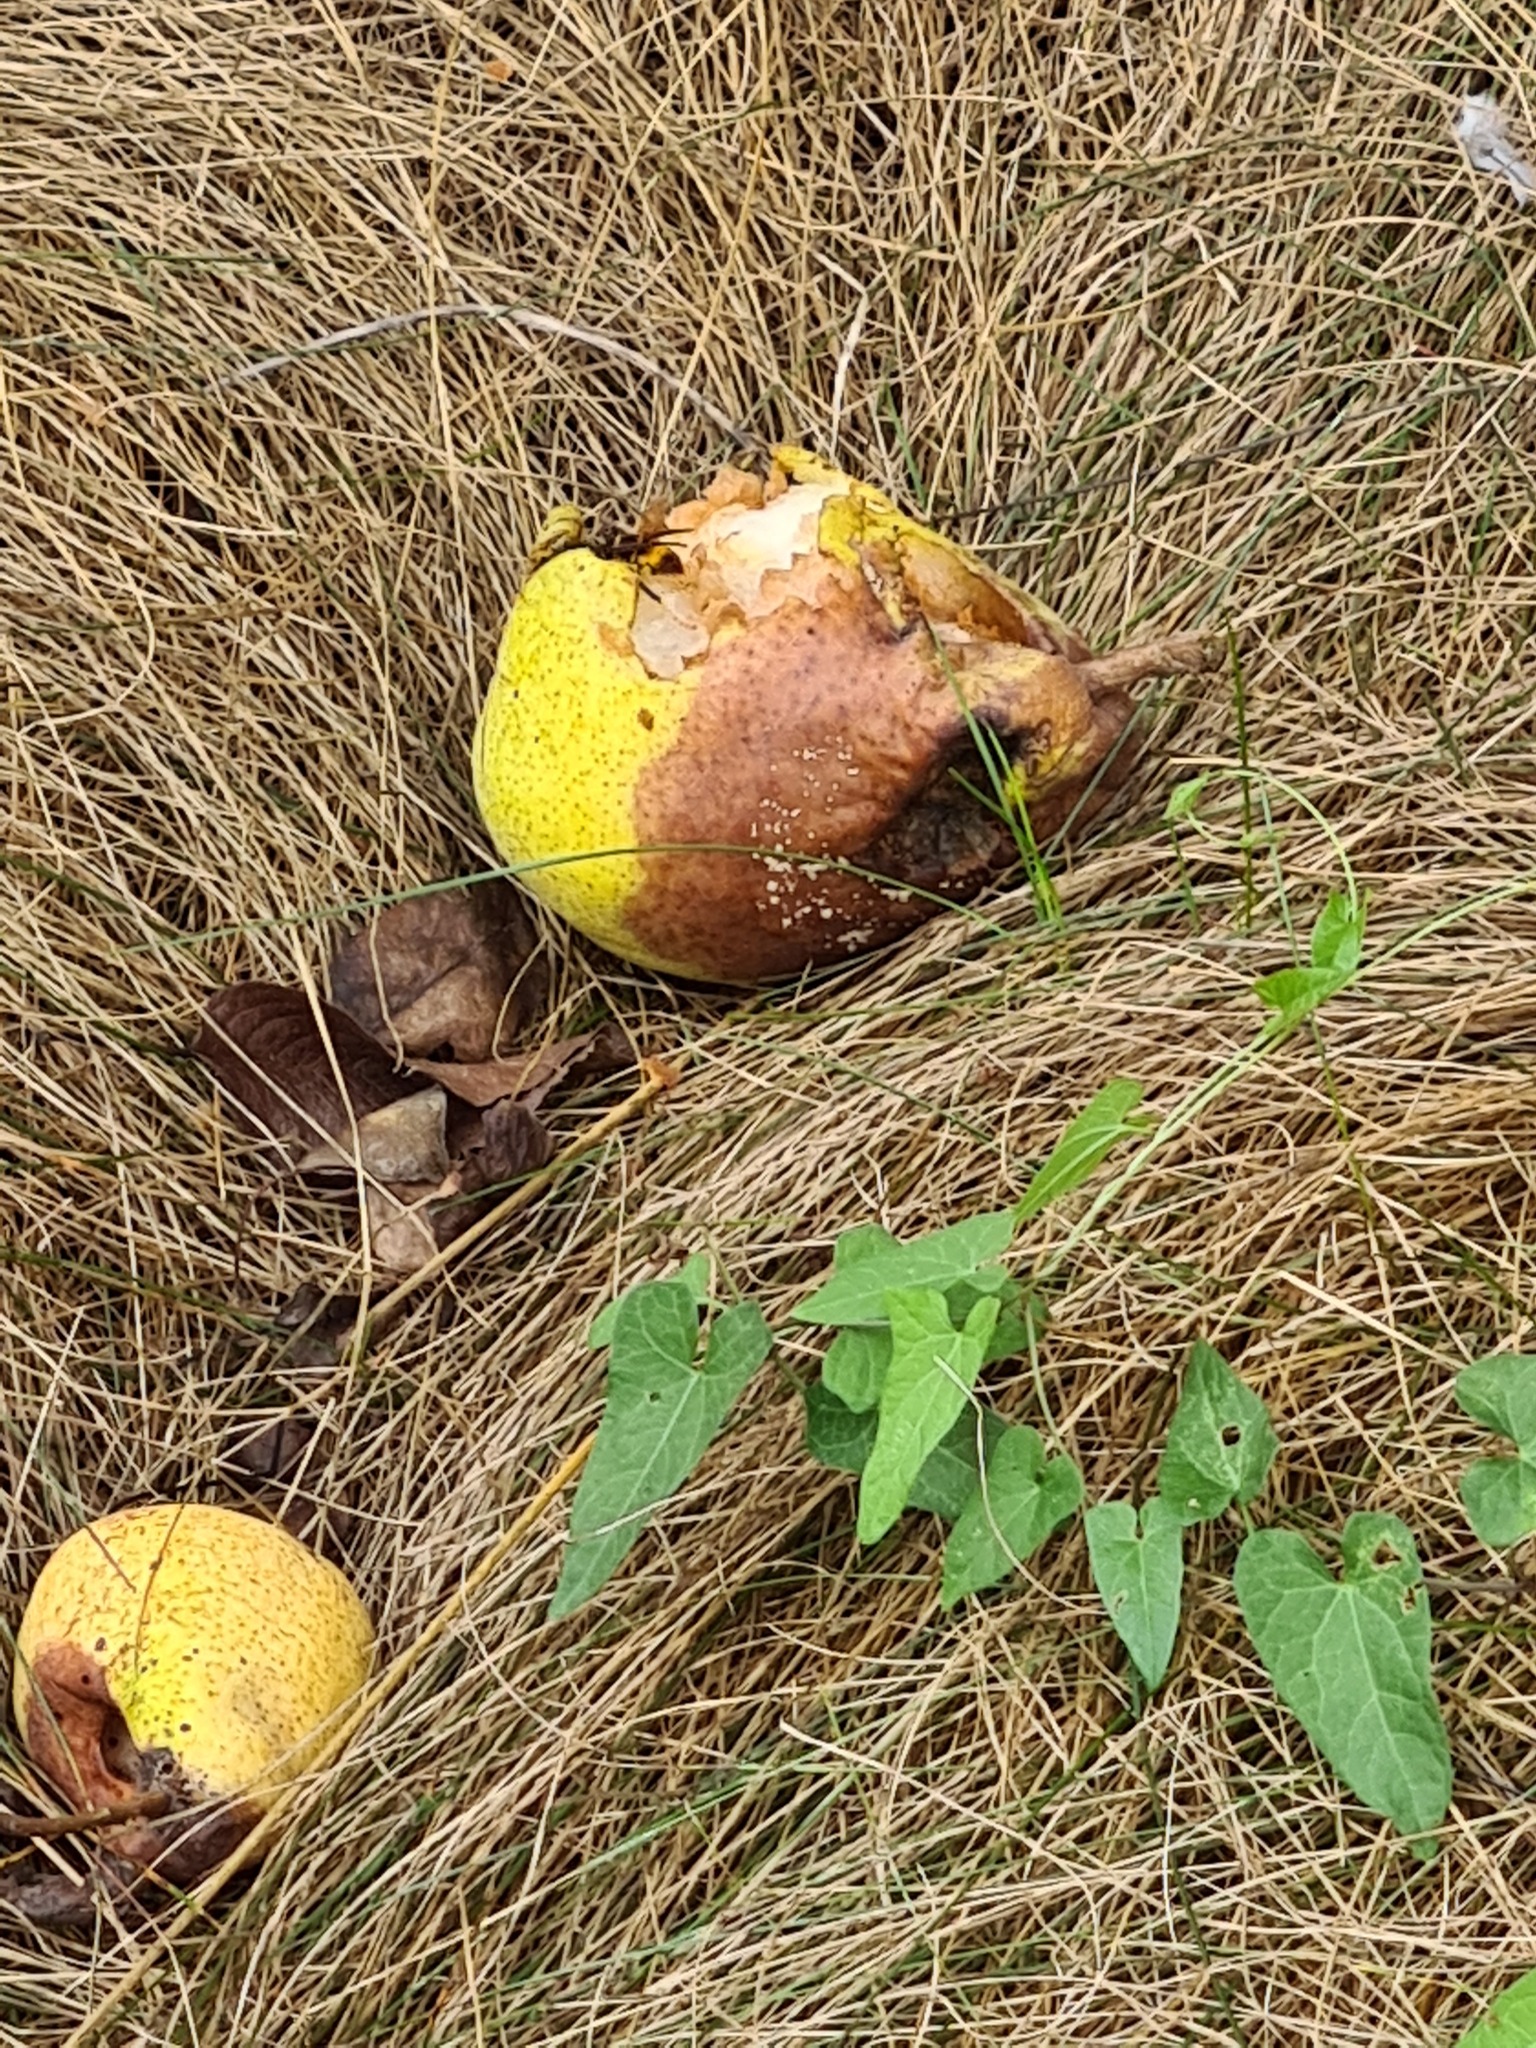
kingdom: Animalia
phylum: Arthropoda
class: Insecta
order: Hymenoptera
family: Vespidae
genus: Vespa
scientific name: Vespa velutina
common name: Asian hornet
